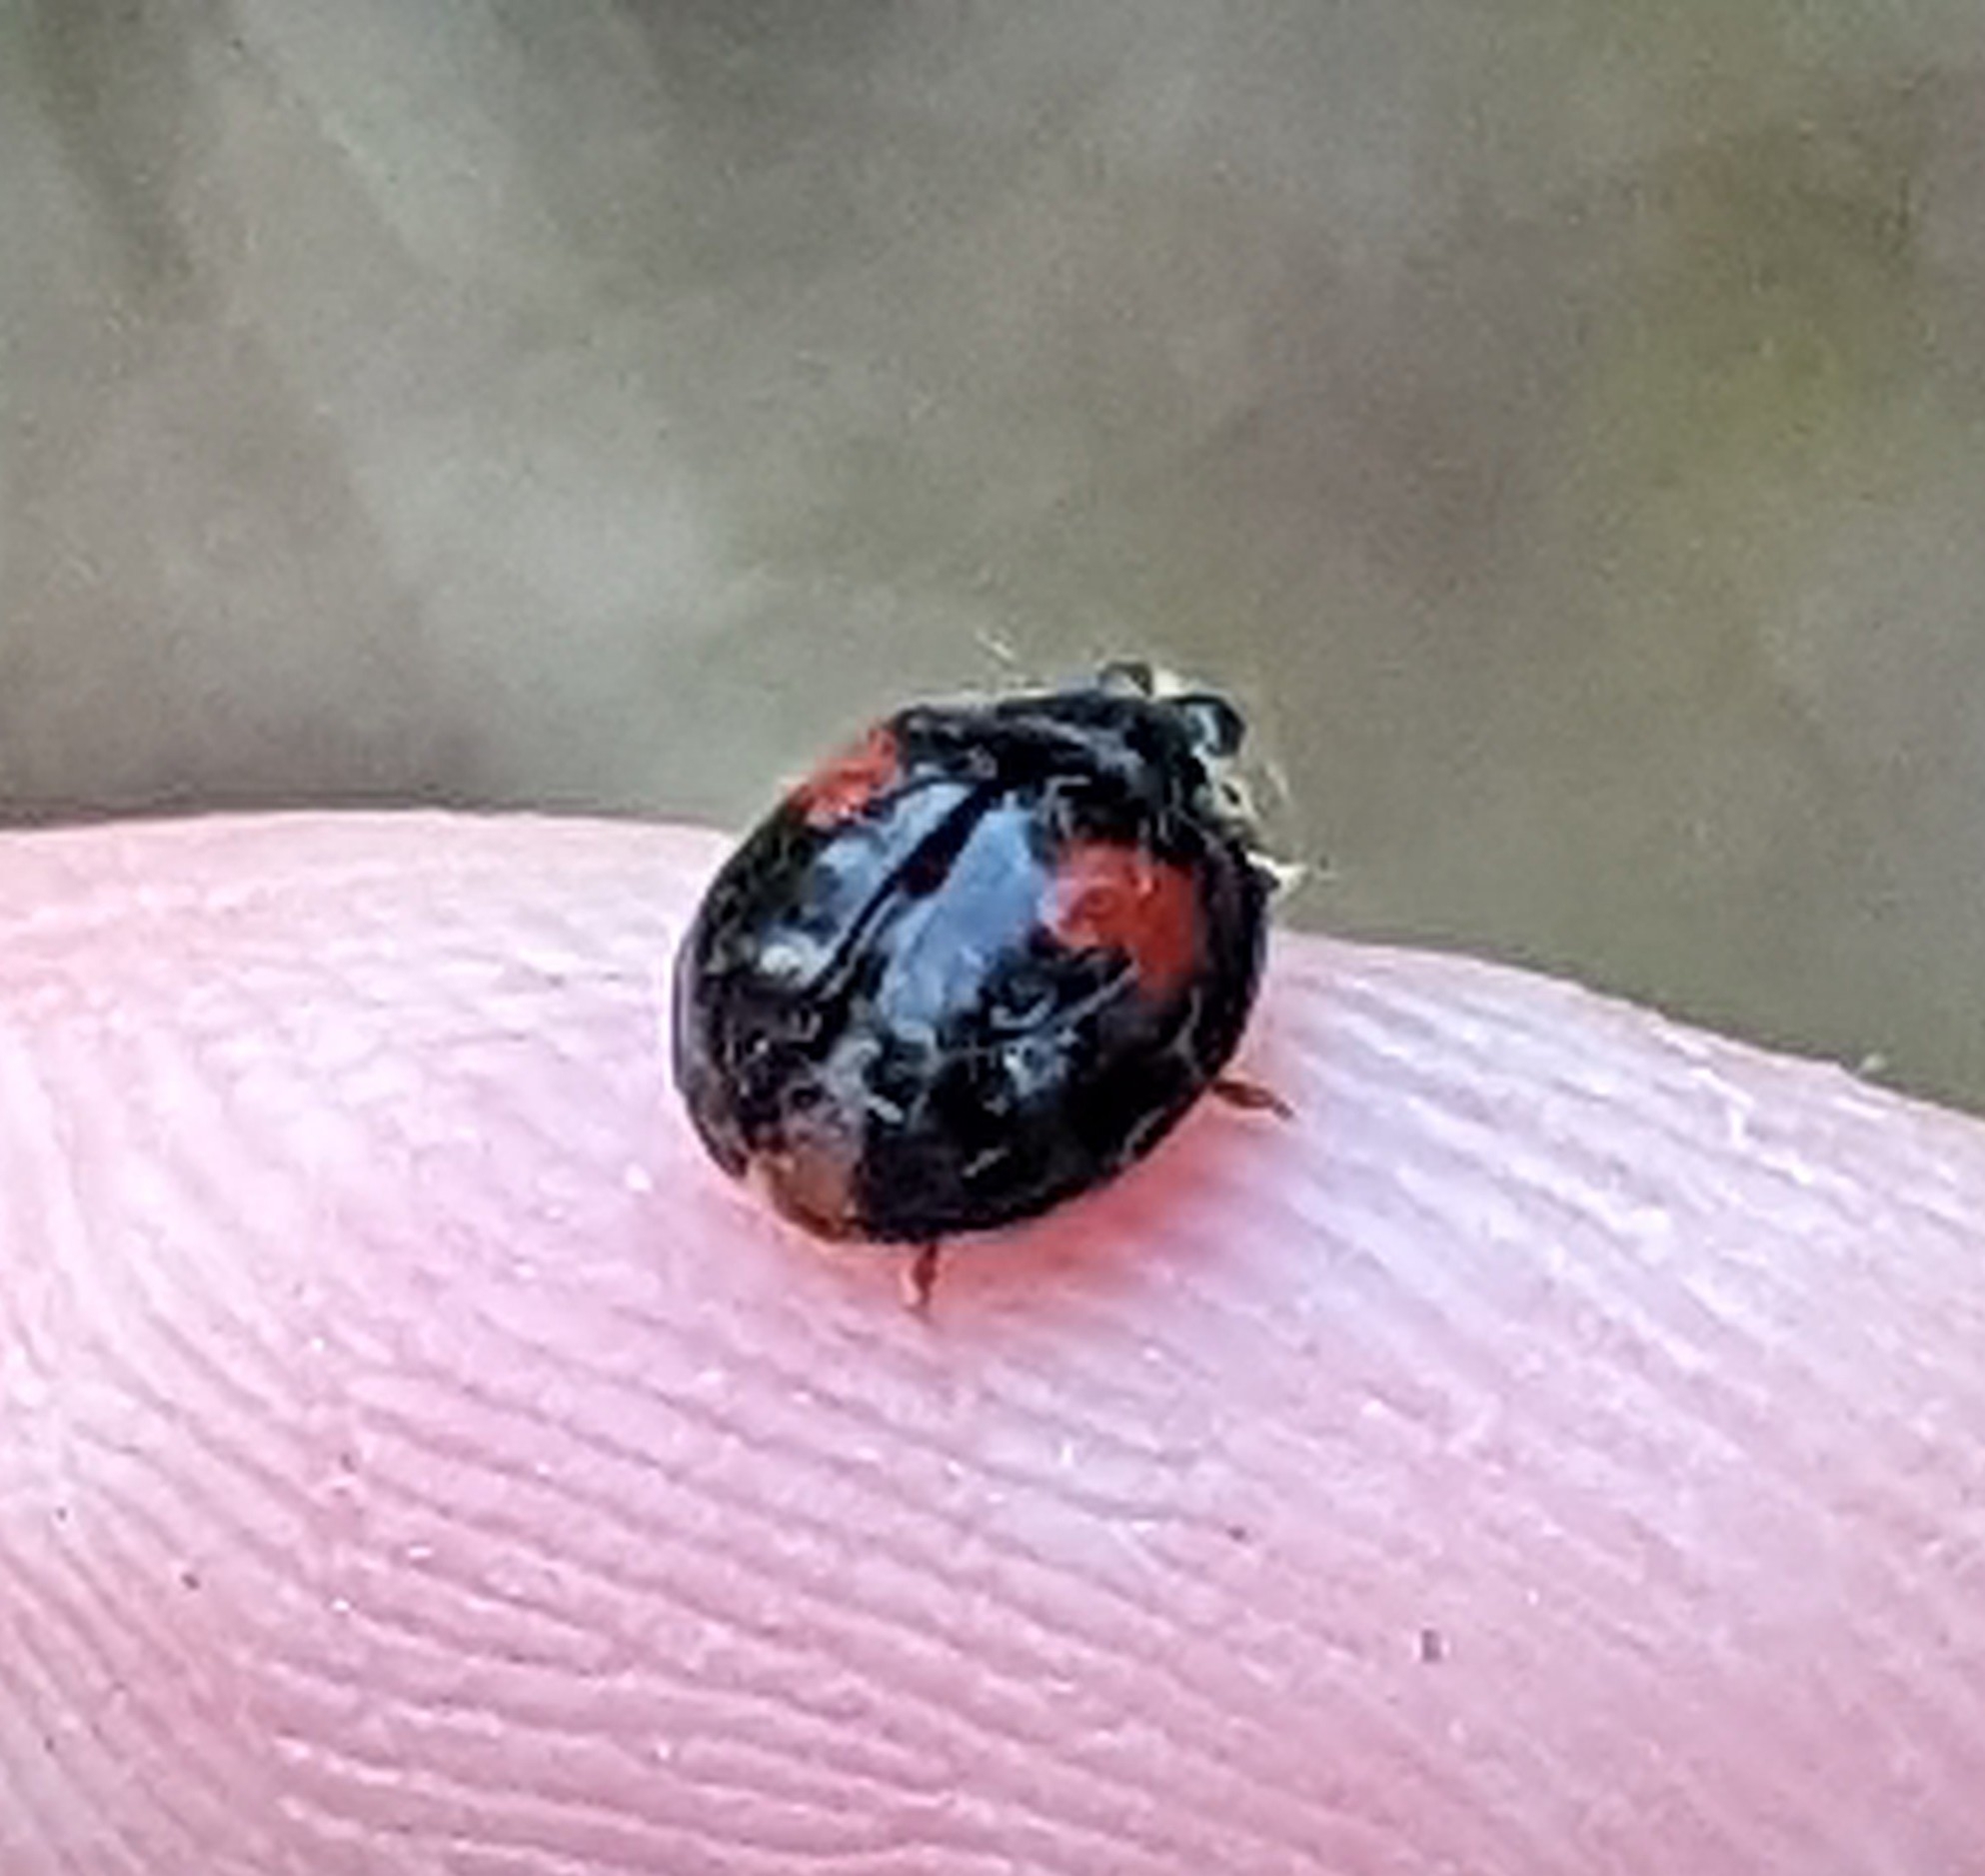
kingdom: Animalia
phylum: Arthropoda
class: Insecta
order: Coleoptera
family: Coccinellidae
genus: Harmonia
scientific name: Harmonia axyridis
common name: Harlequin ladybird
